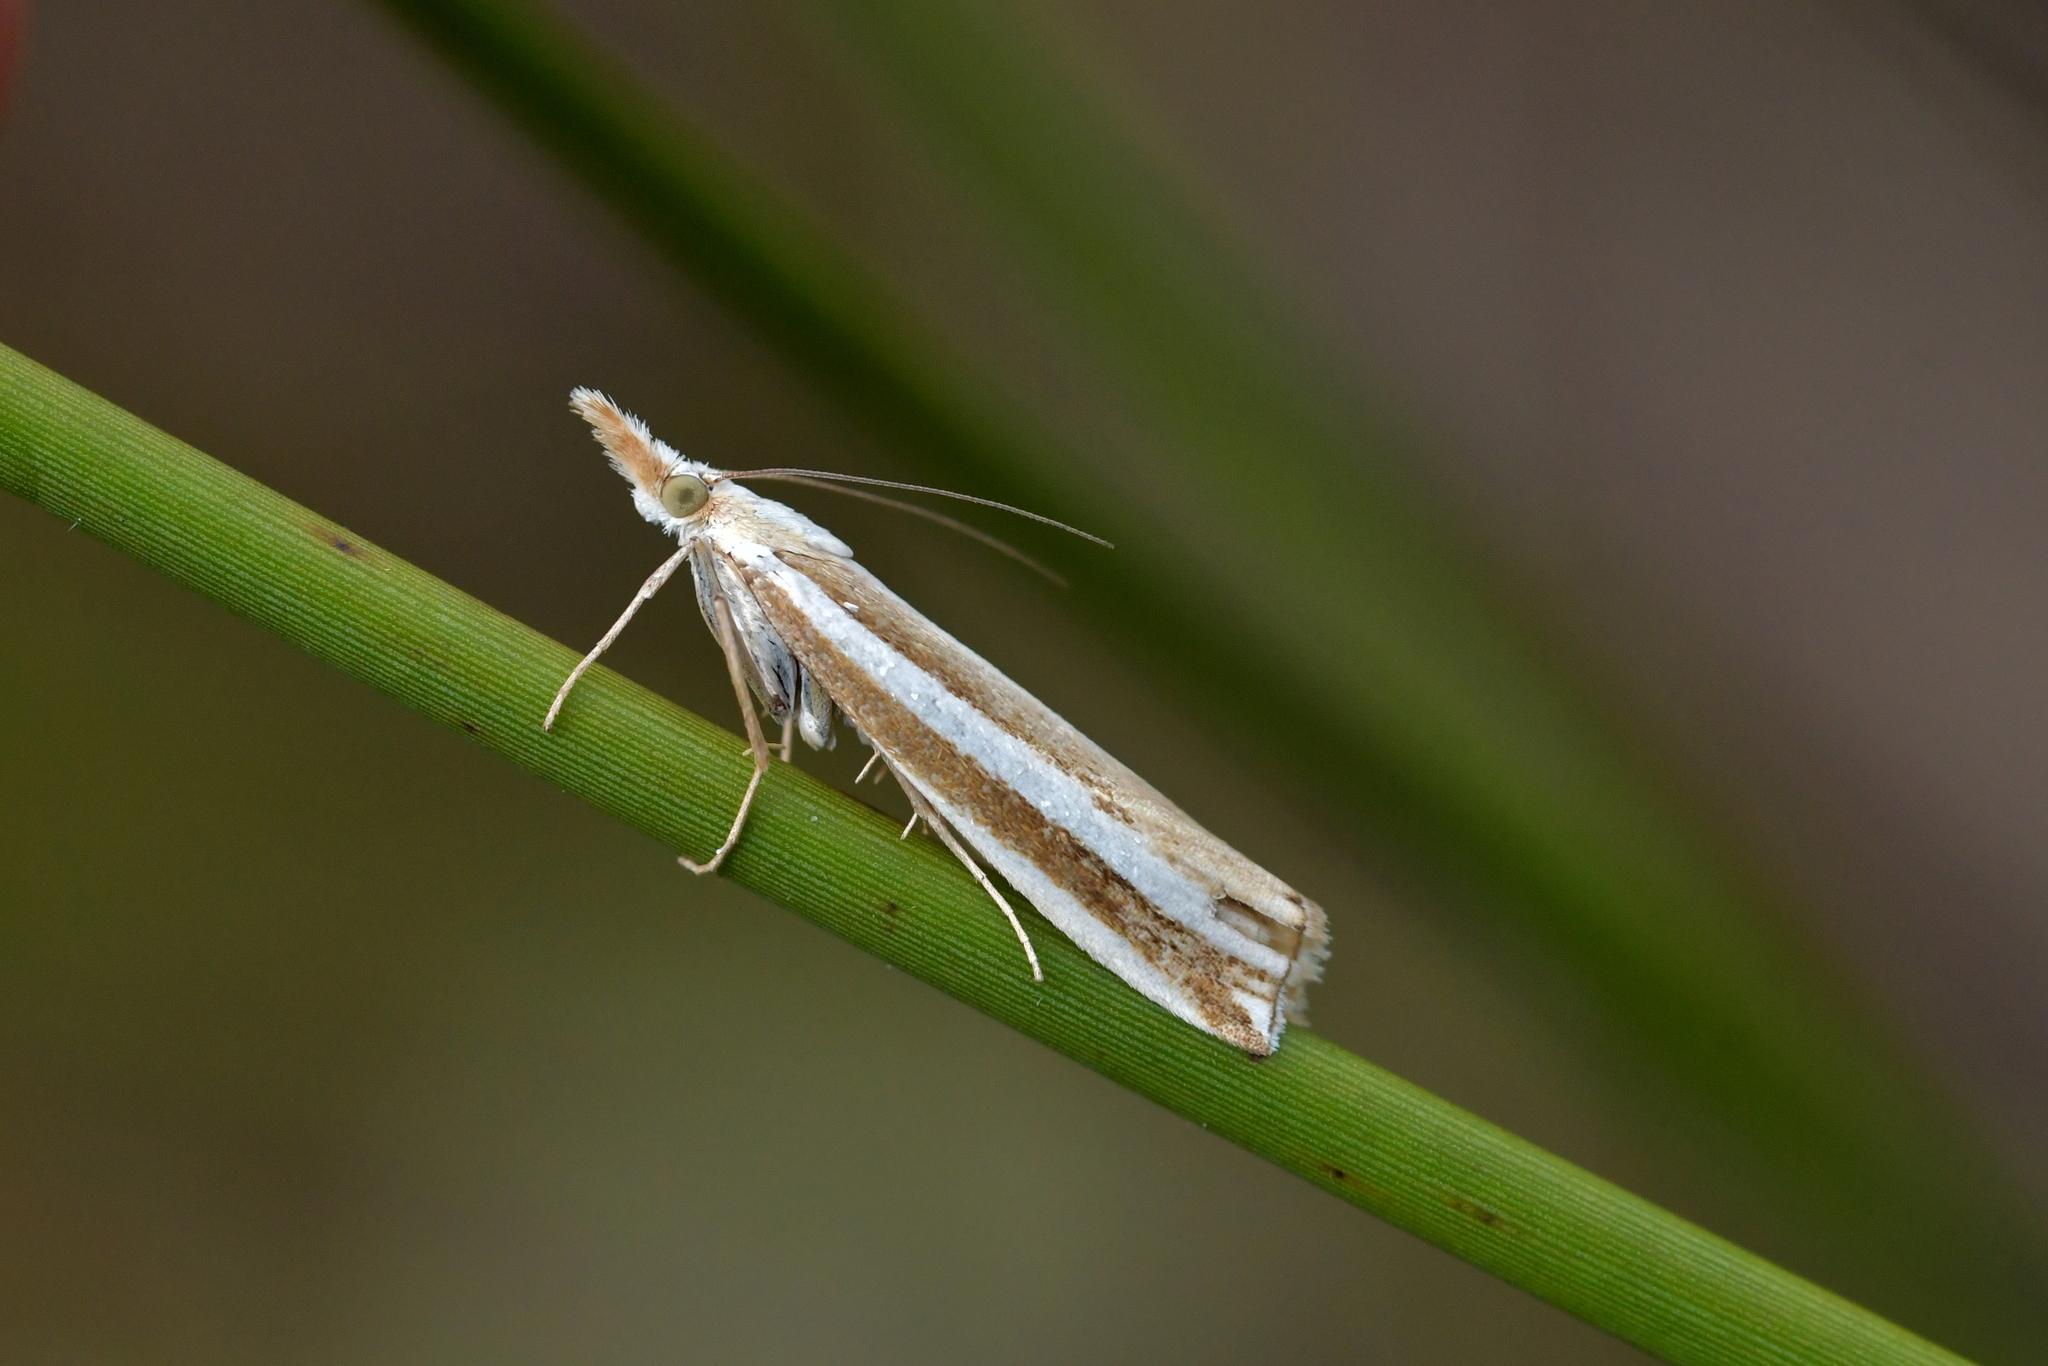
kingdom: Animalia
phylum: Arthropoda
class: Insecta
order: Lepidoptera
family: Crambidae
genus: Orocrambus
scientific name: Orocrambus apicellus
